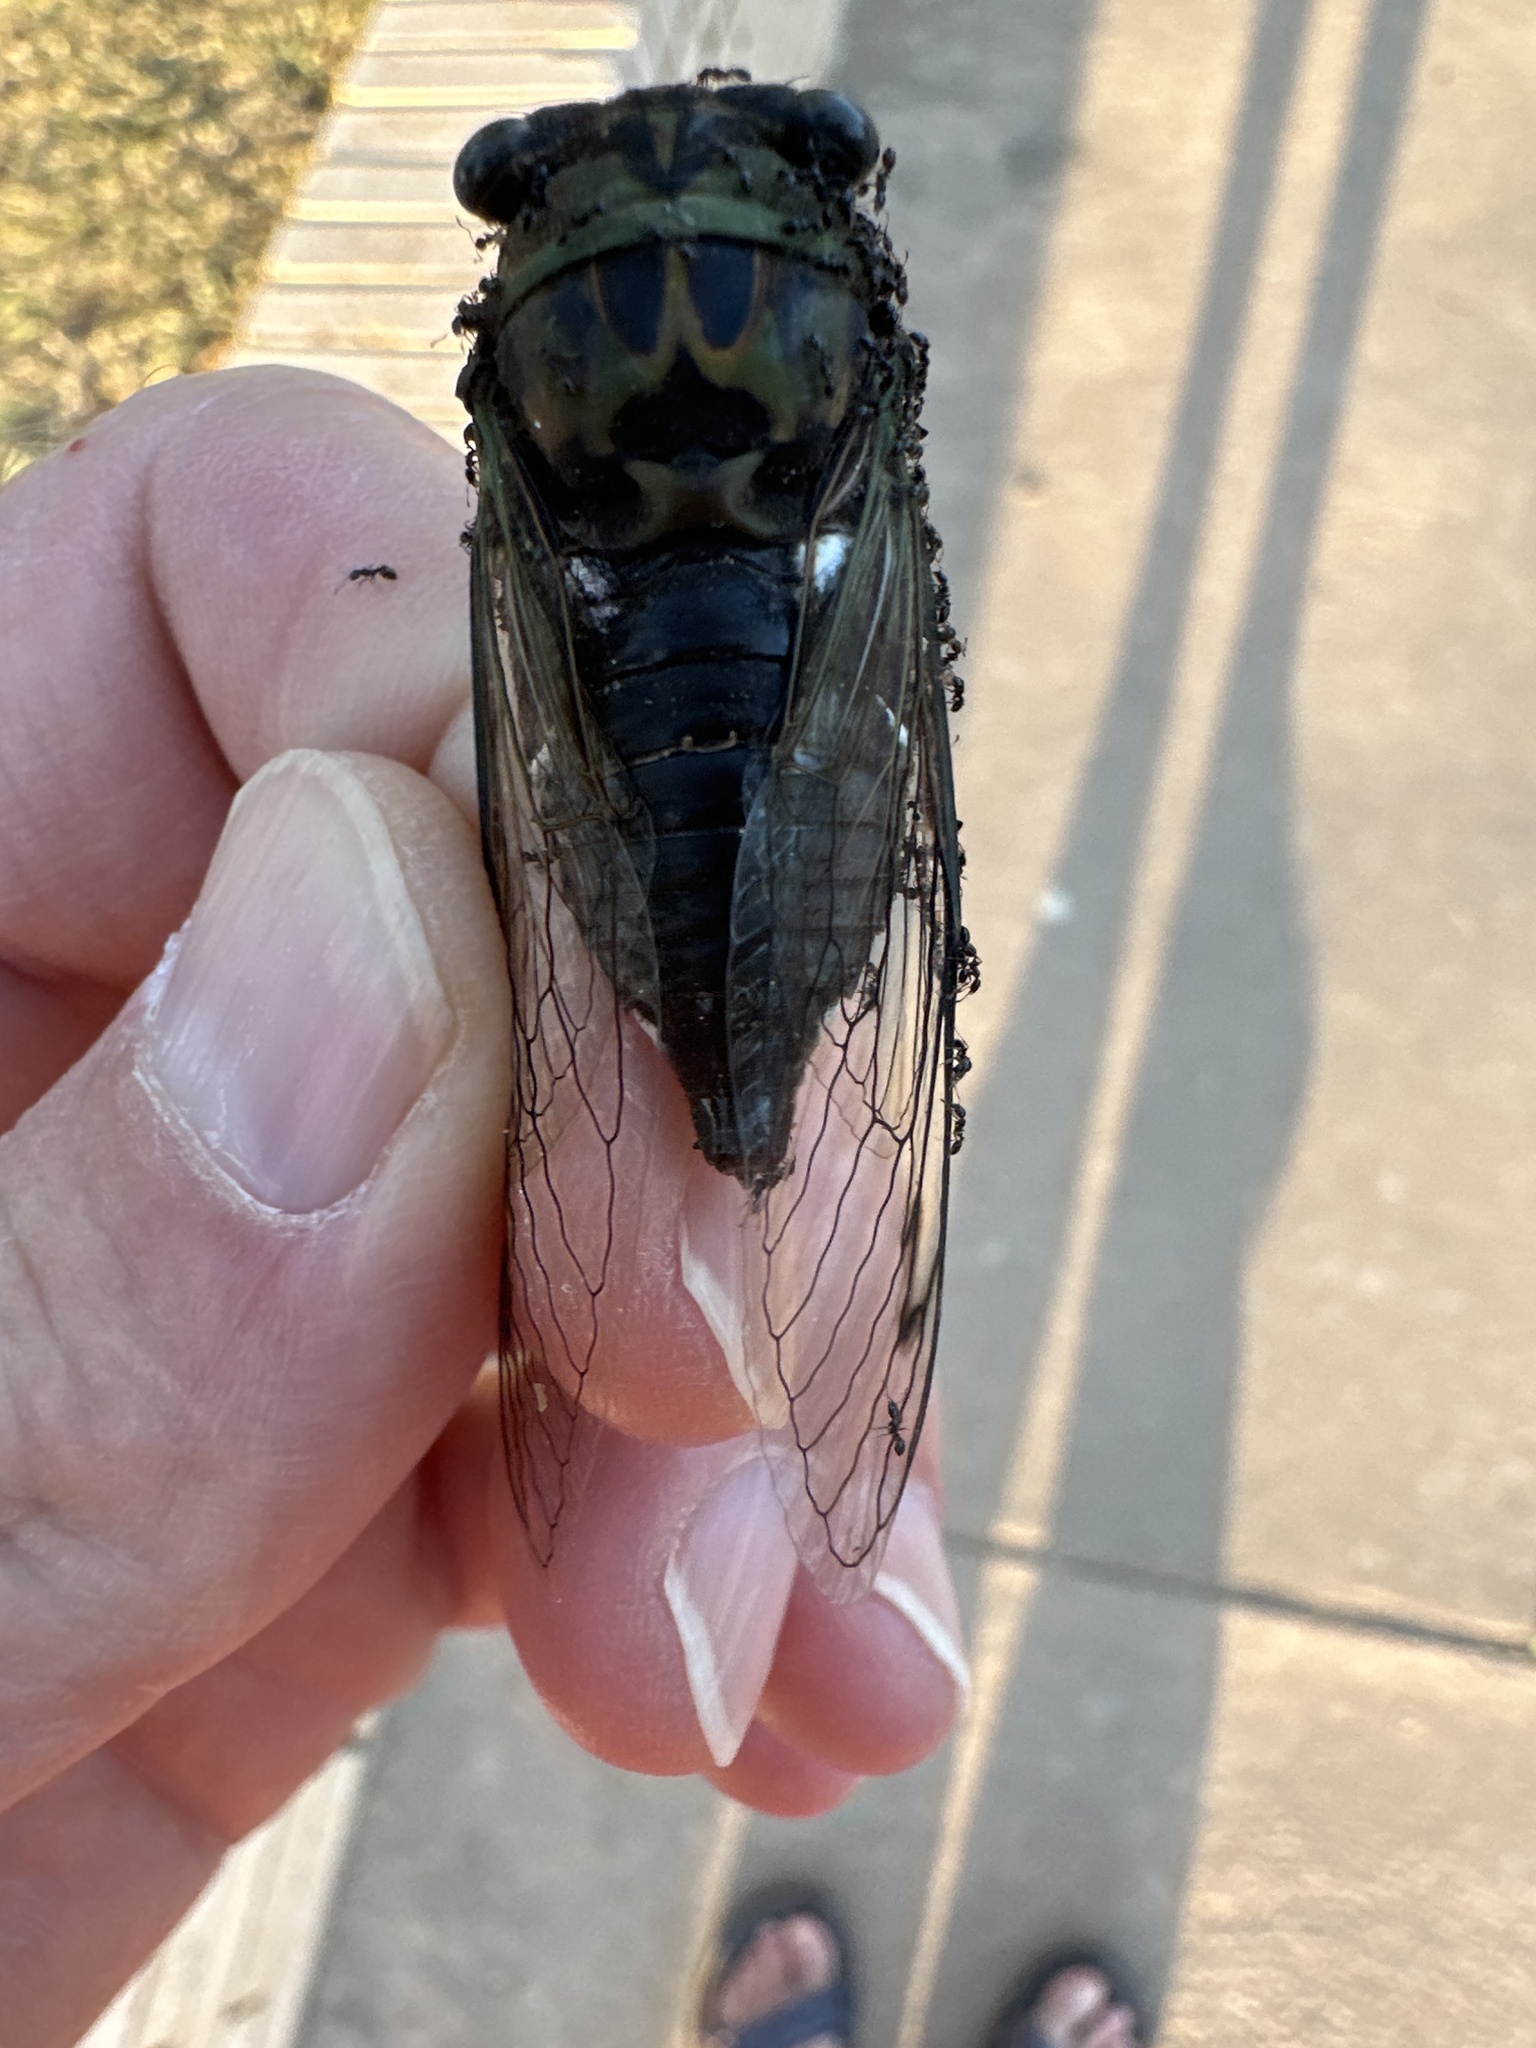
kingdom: Animalia
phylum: Arthropoda
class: Insecta
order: Hemiptera
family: Cicadidae
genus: Neotibicen
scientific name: Neotibicen pruinosus
